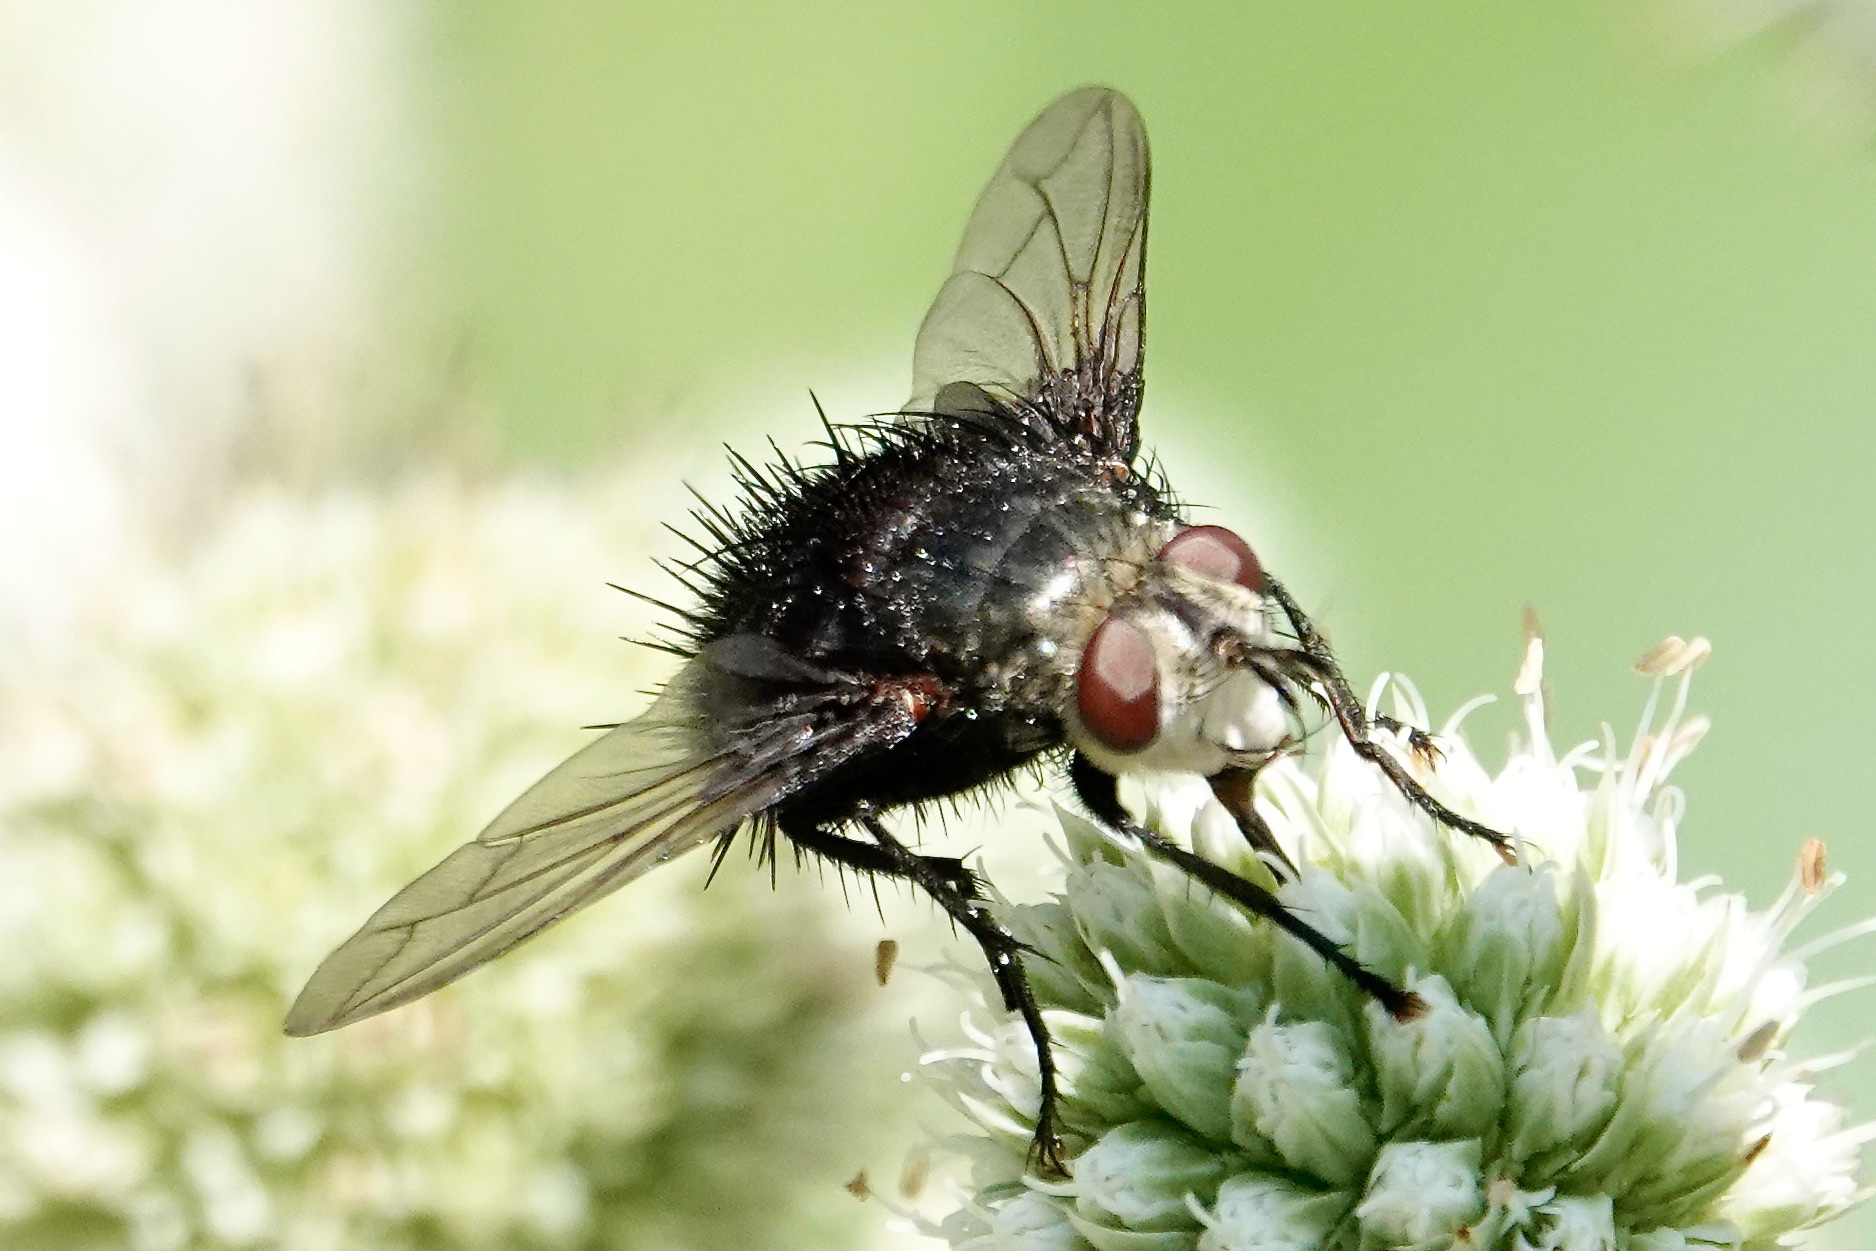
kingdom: Animalia
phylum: Arthropoda
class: Insecta
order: Diptera
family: Tachinidae
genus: Juriniopsis
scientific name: Juriniopsis adusta
